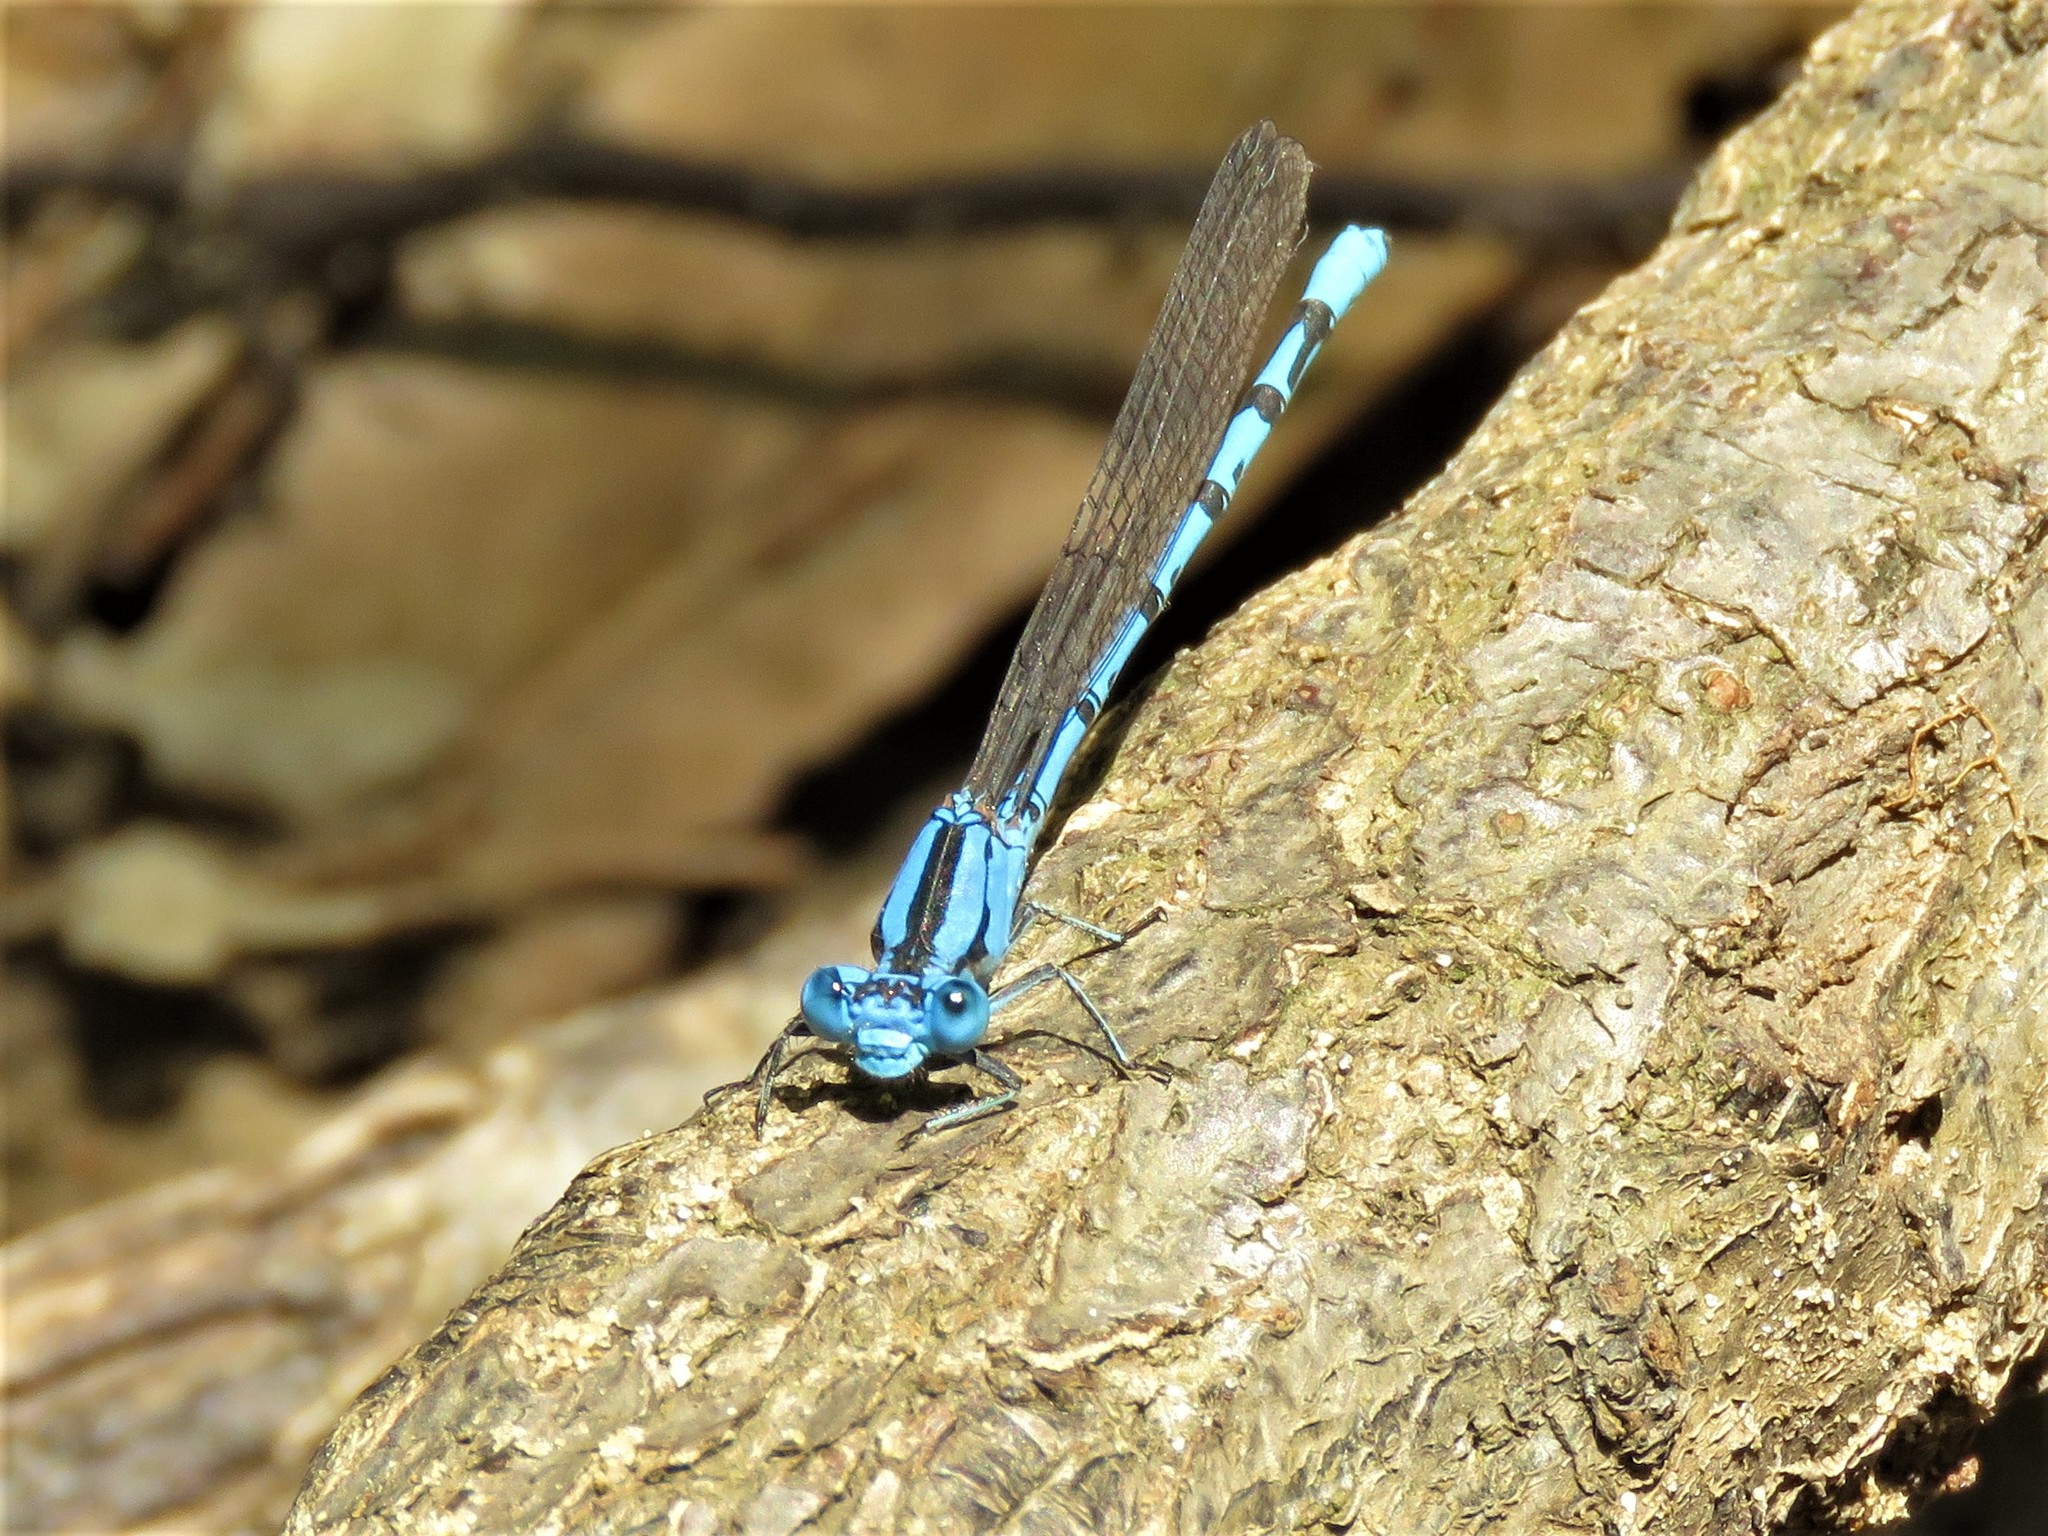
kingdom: Animalia
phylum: Arthropoda
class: Insecta
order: Odonata
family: Coenagrionidae
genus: Argia
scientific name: Argia funebris
